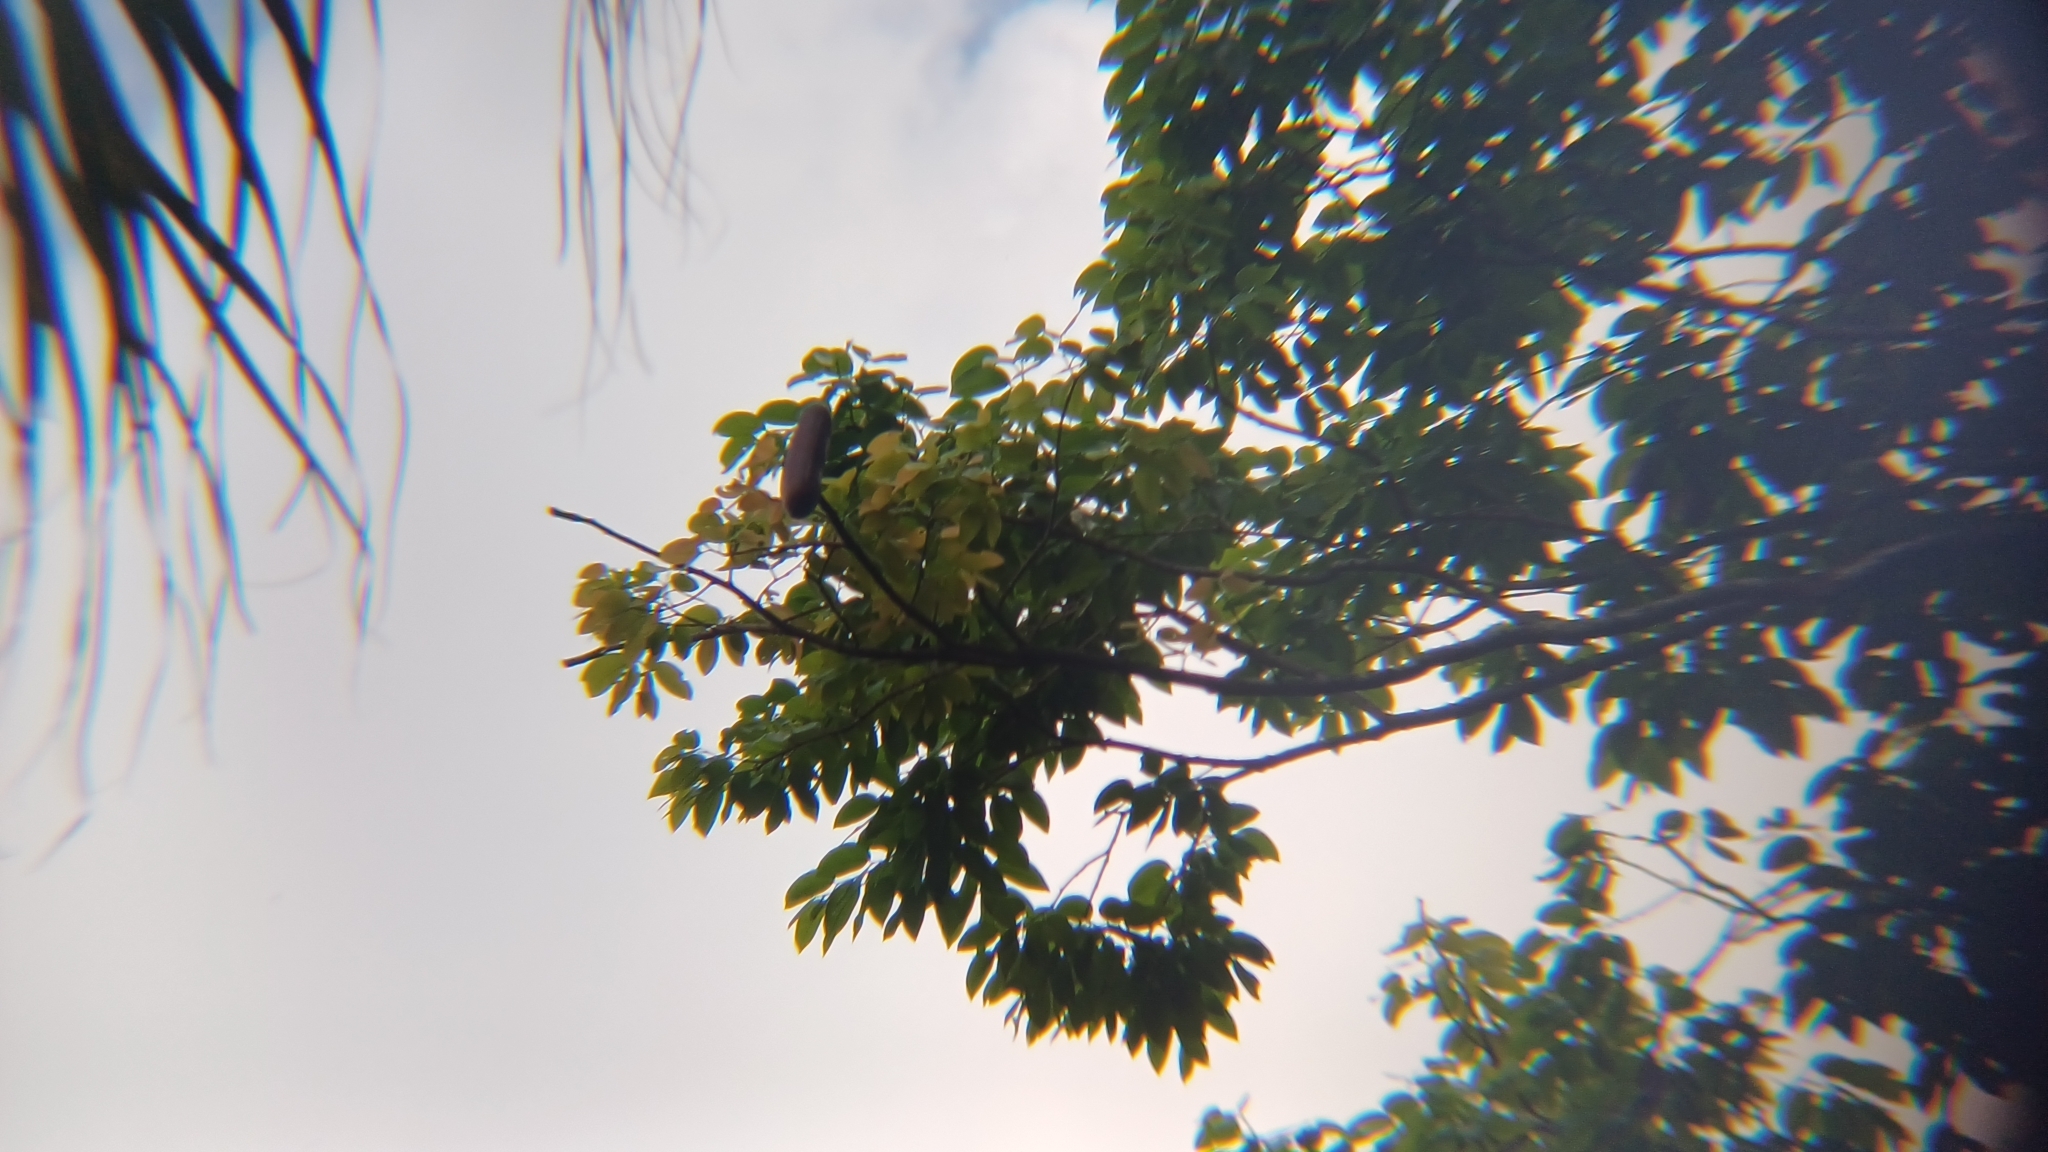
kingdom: Plantae
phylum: Tracheophyta
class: Magnoliopsida
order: Fabales
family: Fabaceae
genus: Hymenaea
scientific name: Hymenaea courbaril
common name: Brazilian copal
